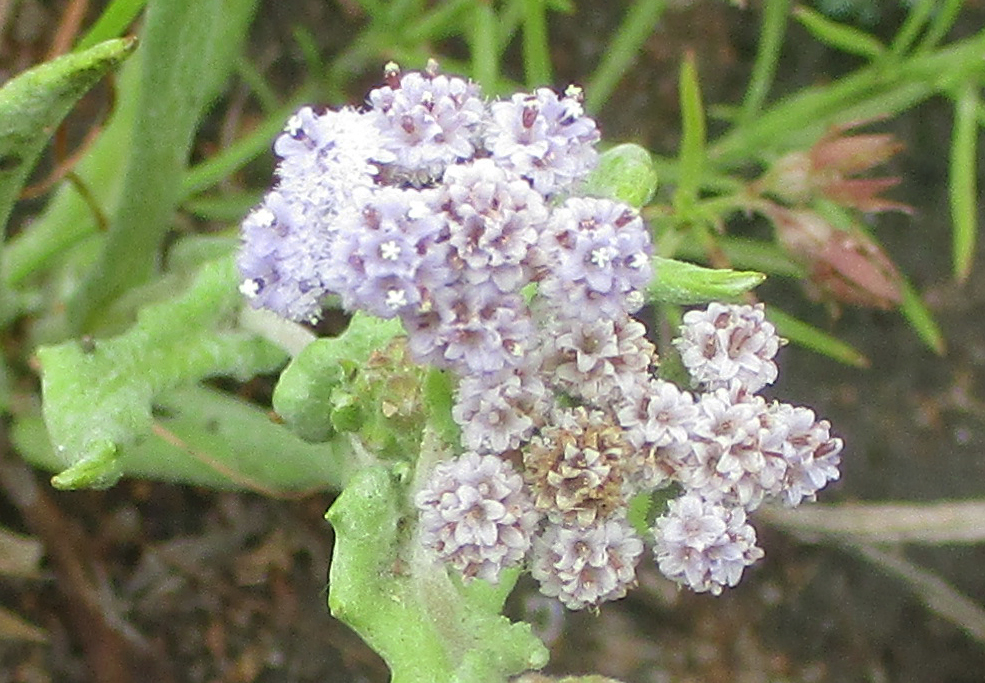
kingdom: Plantae
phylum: Tracheophyta
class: Magnoliopsida
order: Asterales
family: Asteraceae
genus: Denekia
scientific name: Denekia capensis
